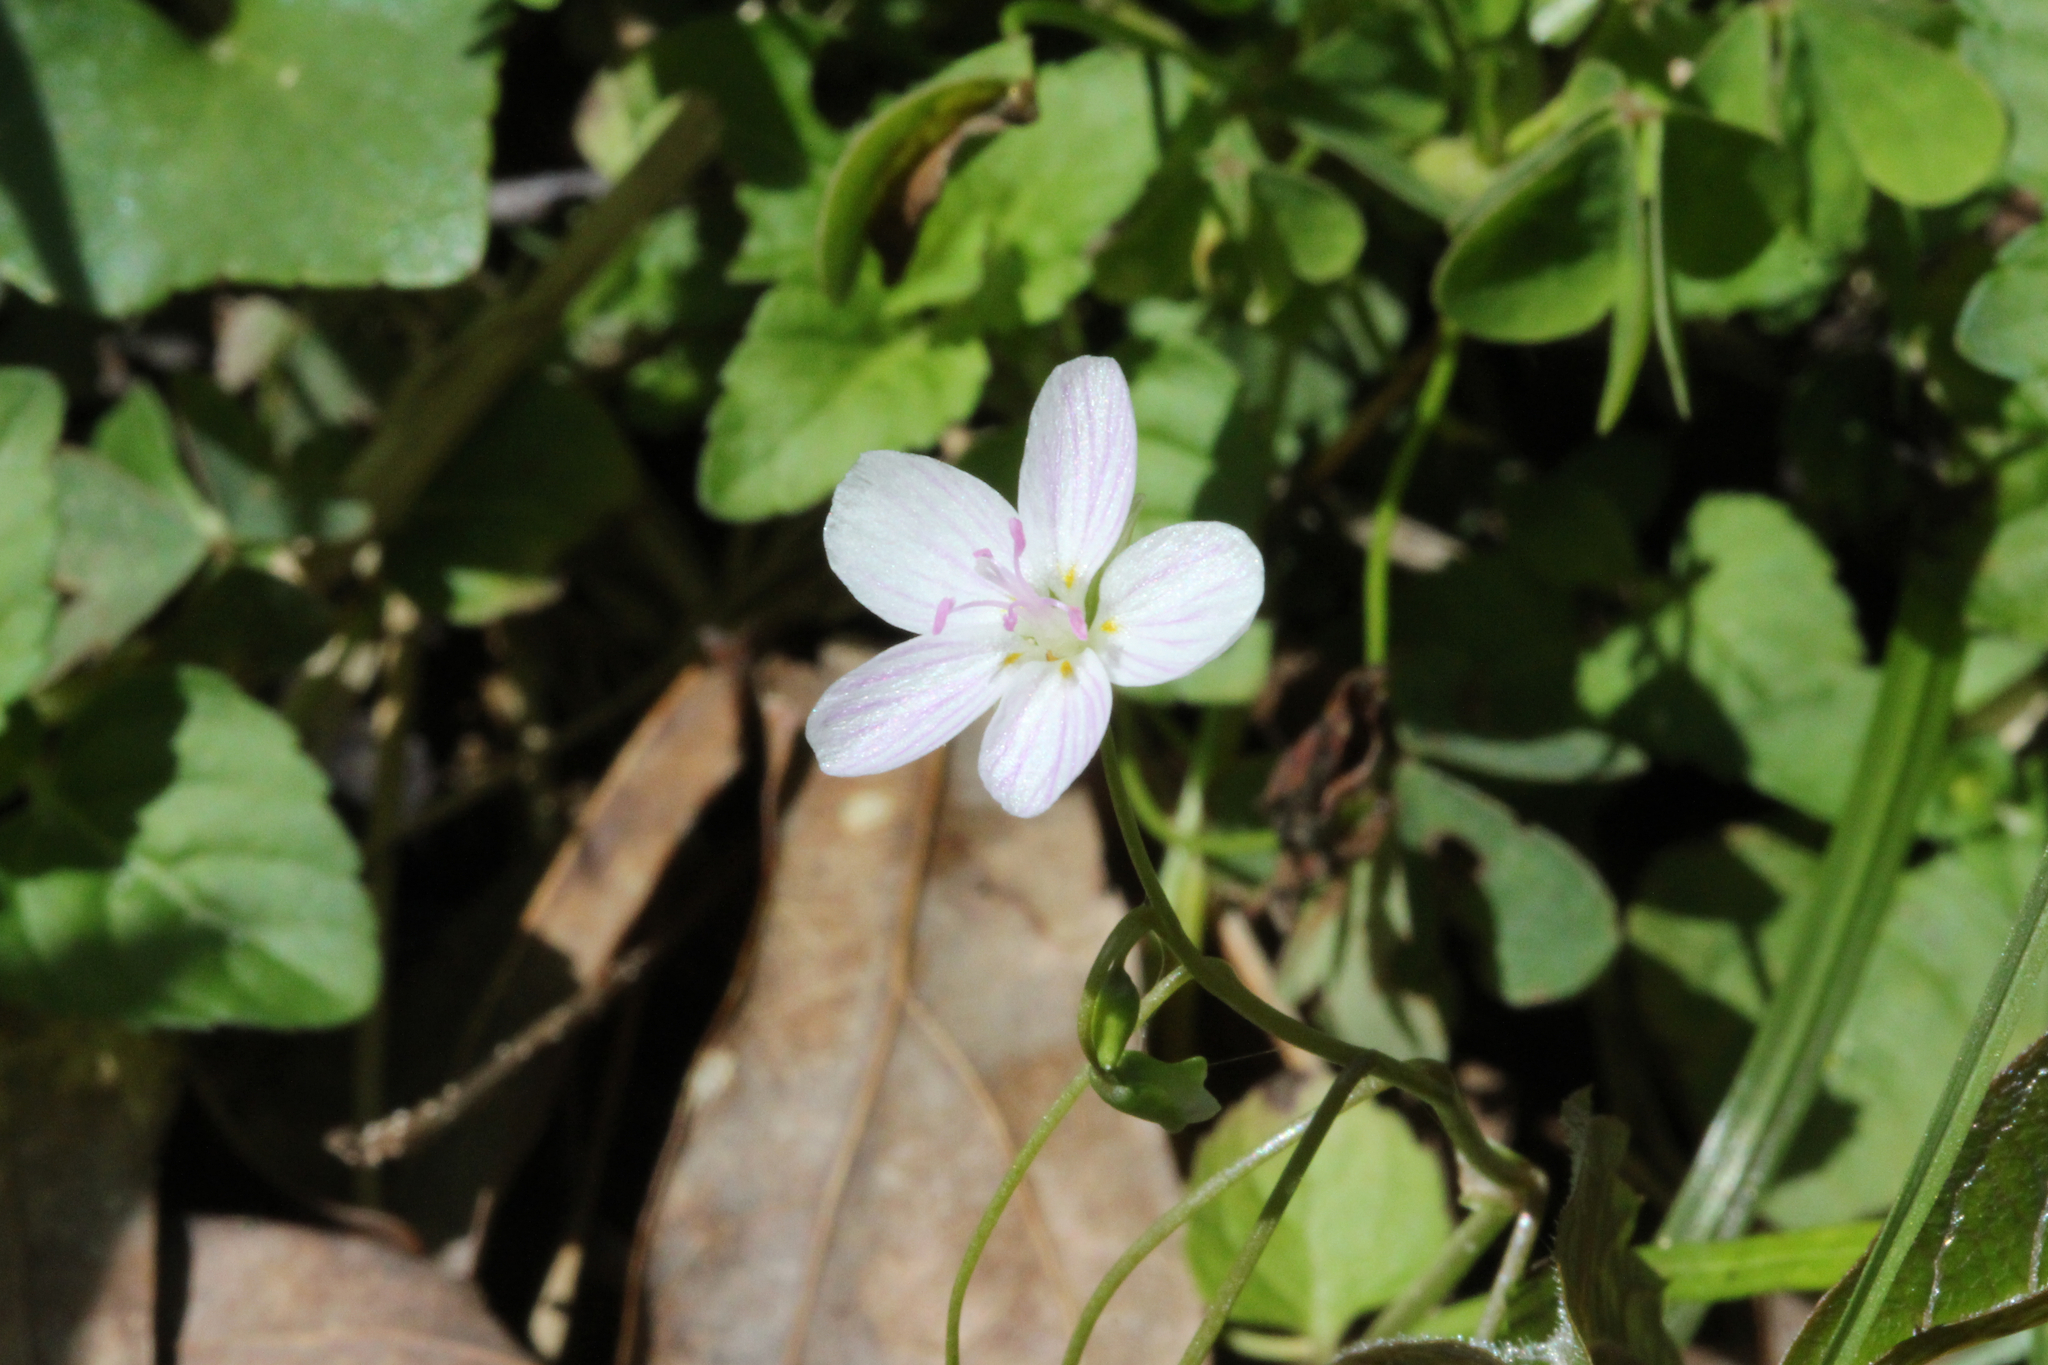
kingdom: Plantae
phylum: Tracheophyta
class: Magnoliopsida
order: Caryophyllales
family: Montiaceae
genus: Claytonia
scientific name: Claytonia virginica
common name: Virginia springbeauty
